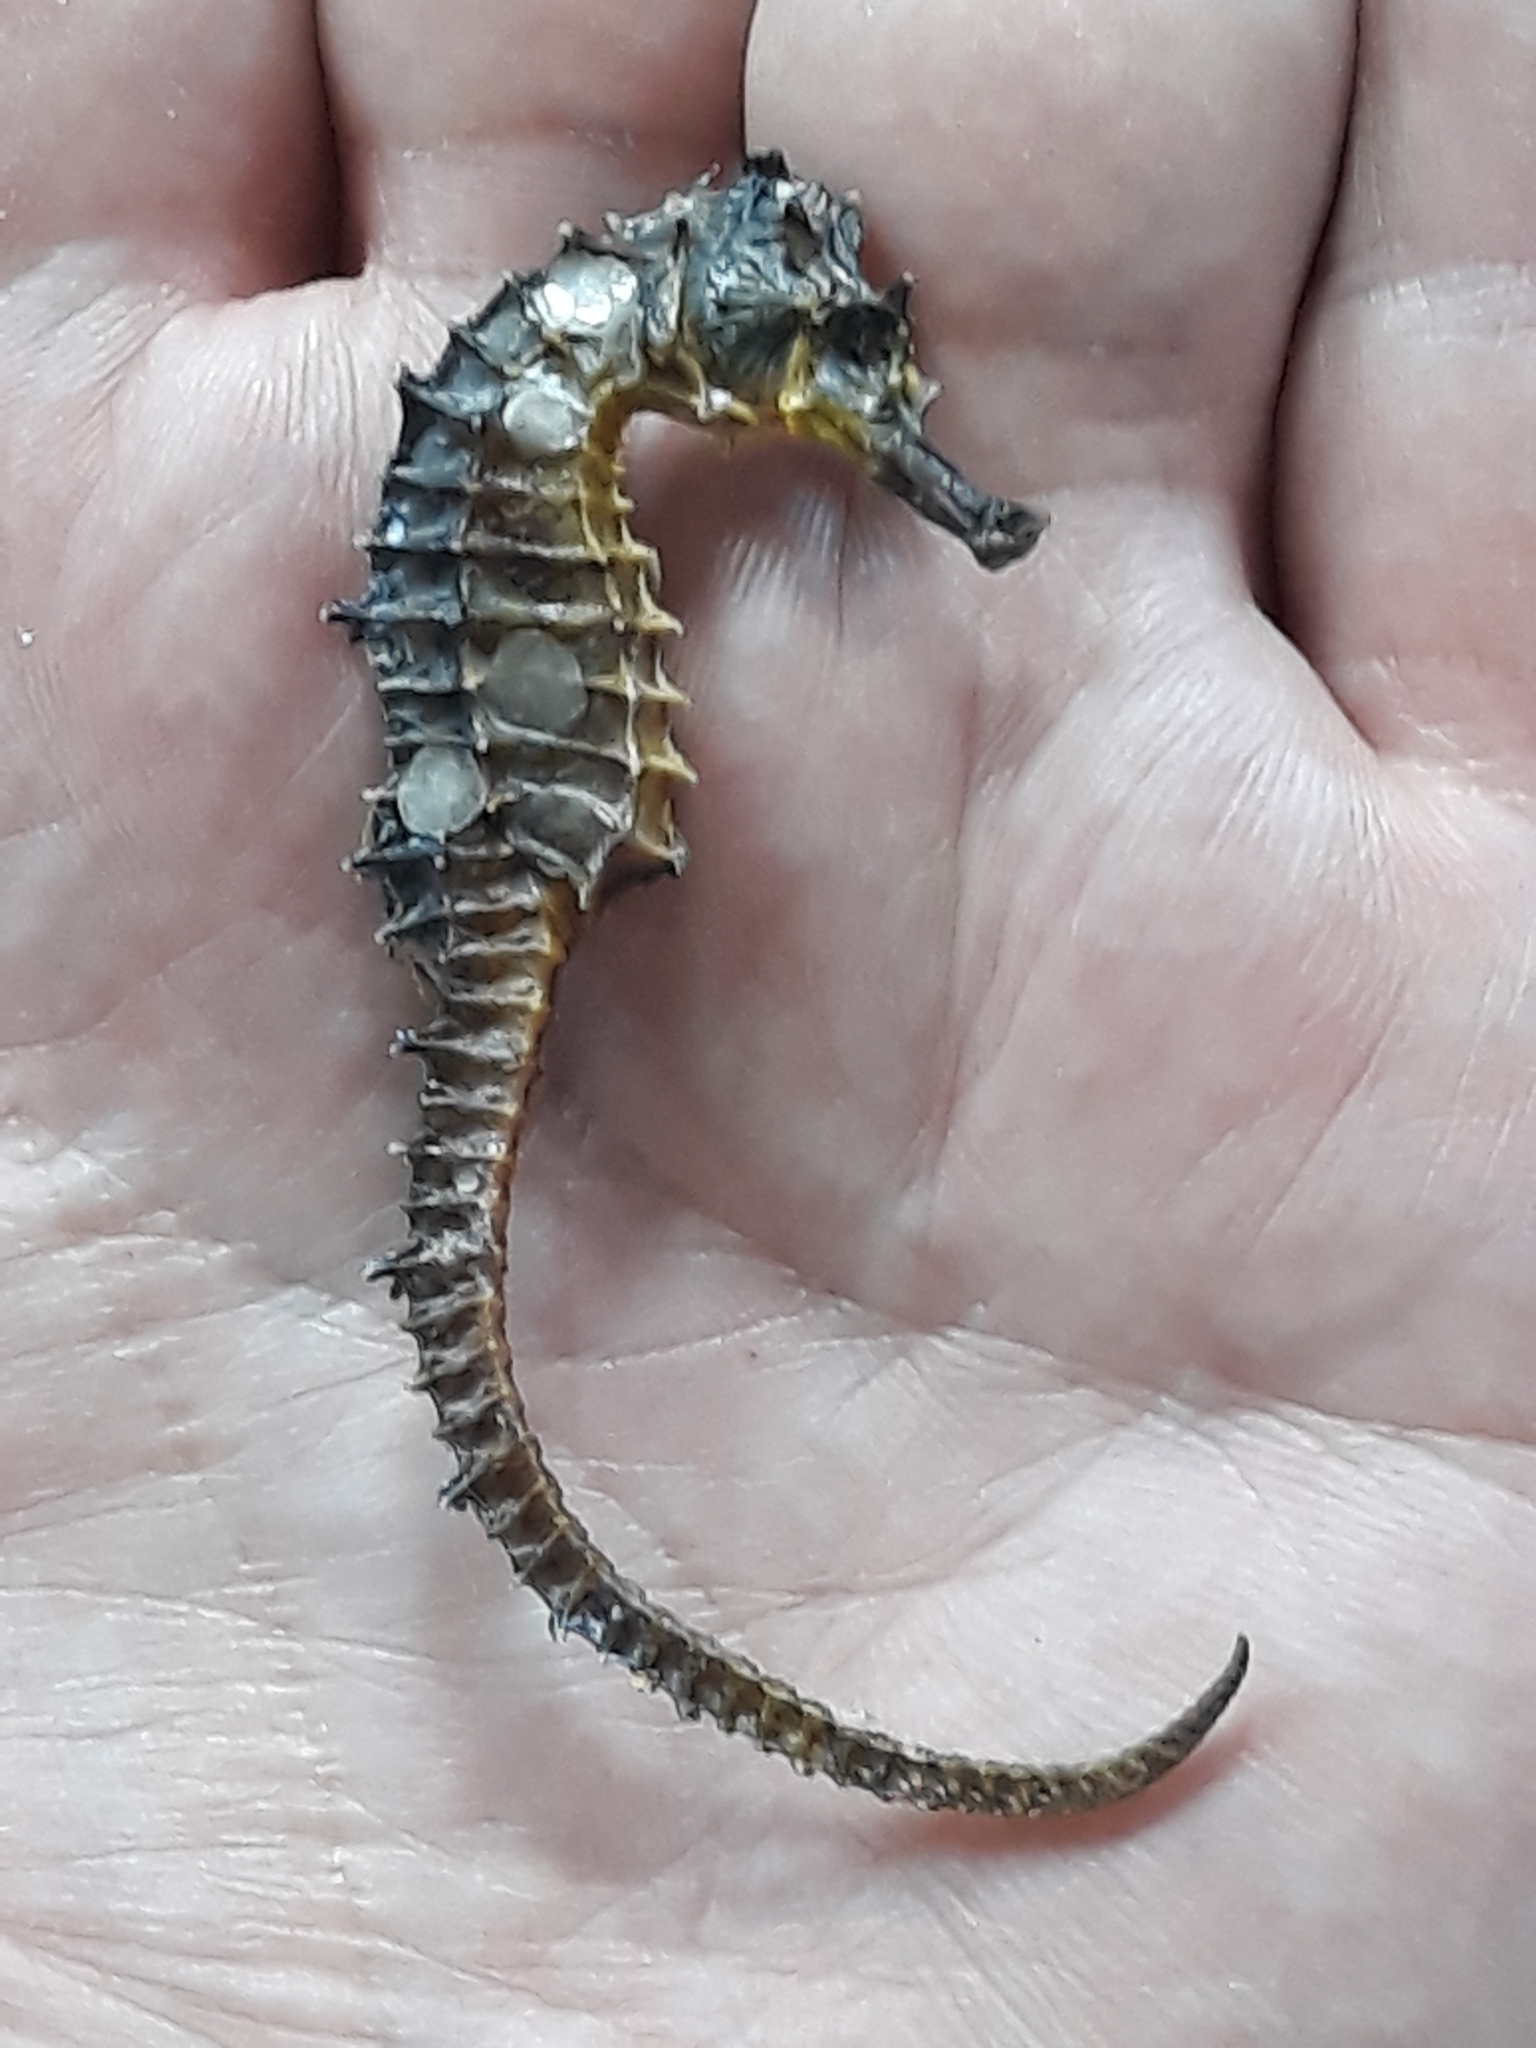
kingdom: Animalia
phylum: Chordata
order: Syngnathiformes
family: Syngnathidae
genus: Hippocampus
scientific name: Hippocampus hippocampus
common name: Short-snouted seahorse
